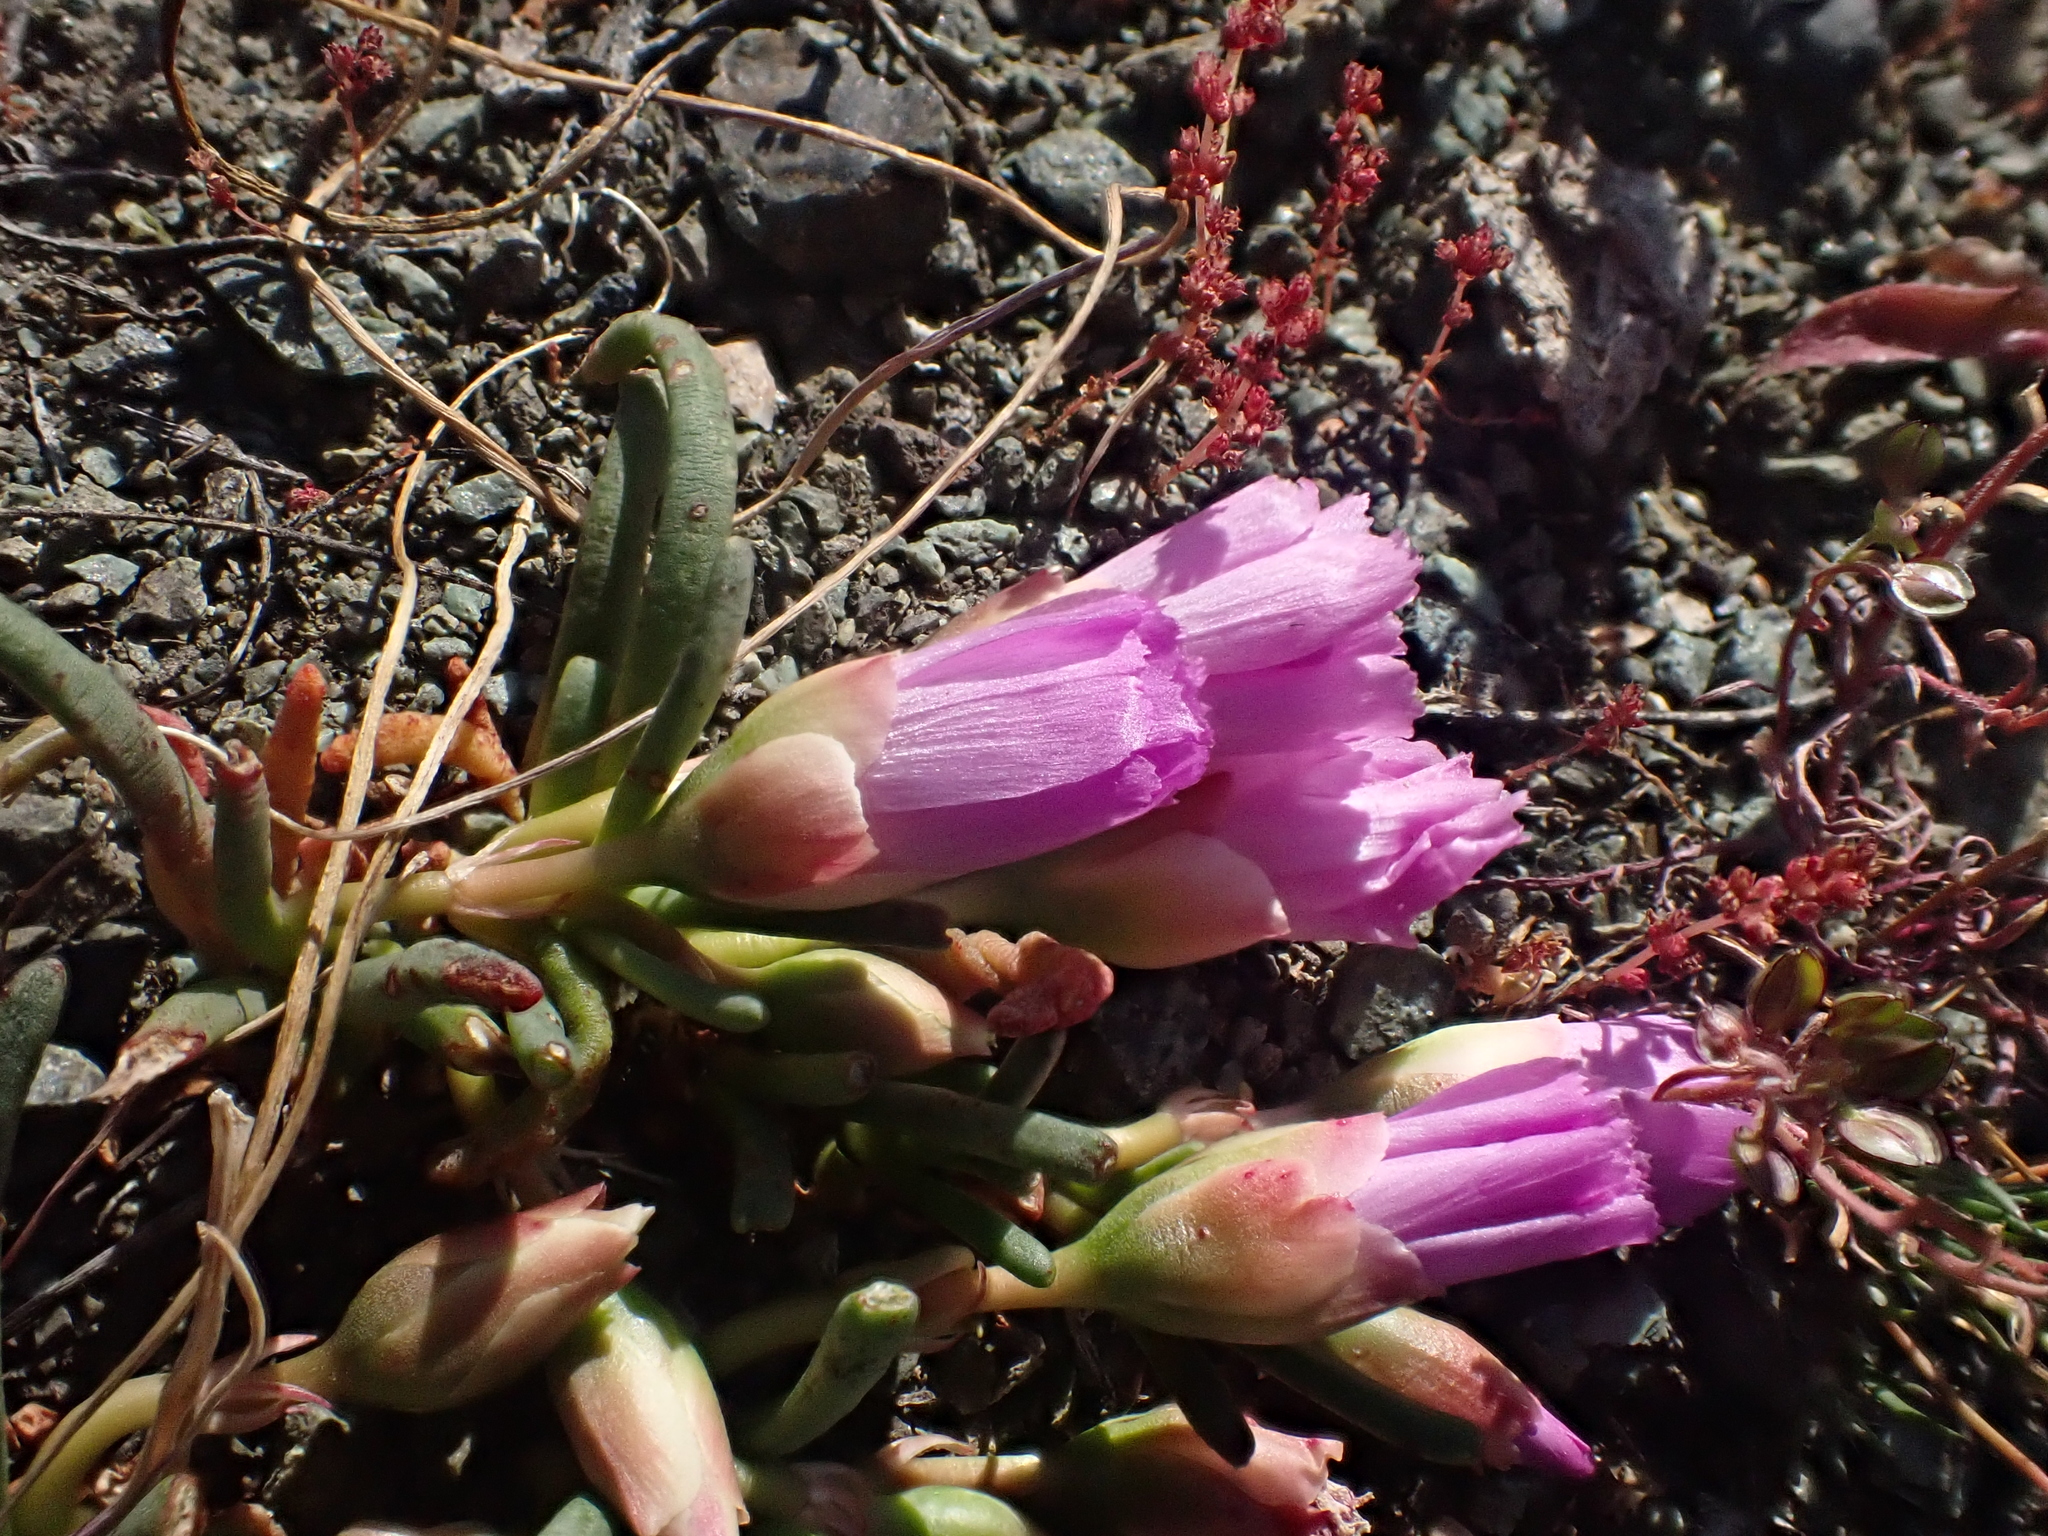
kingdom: Plantae
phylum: Tracheophyta
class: Magnoliopsida
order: Caryophyllales
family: Montiaceae
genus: Lewisia
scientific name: Lewisia rediviva
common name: Bitter-root
